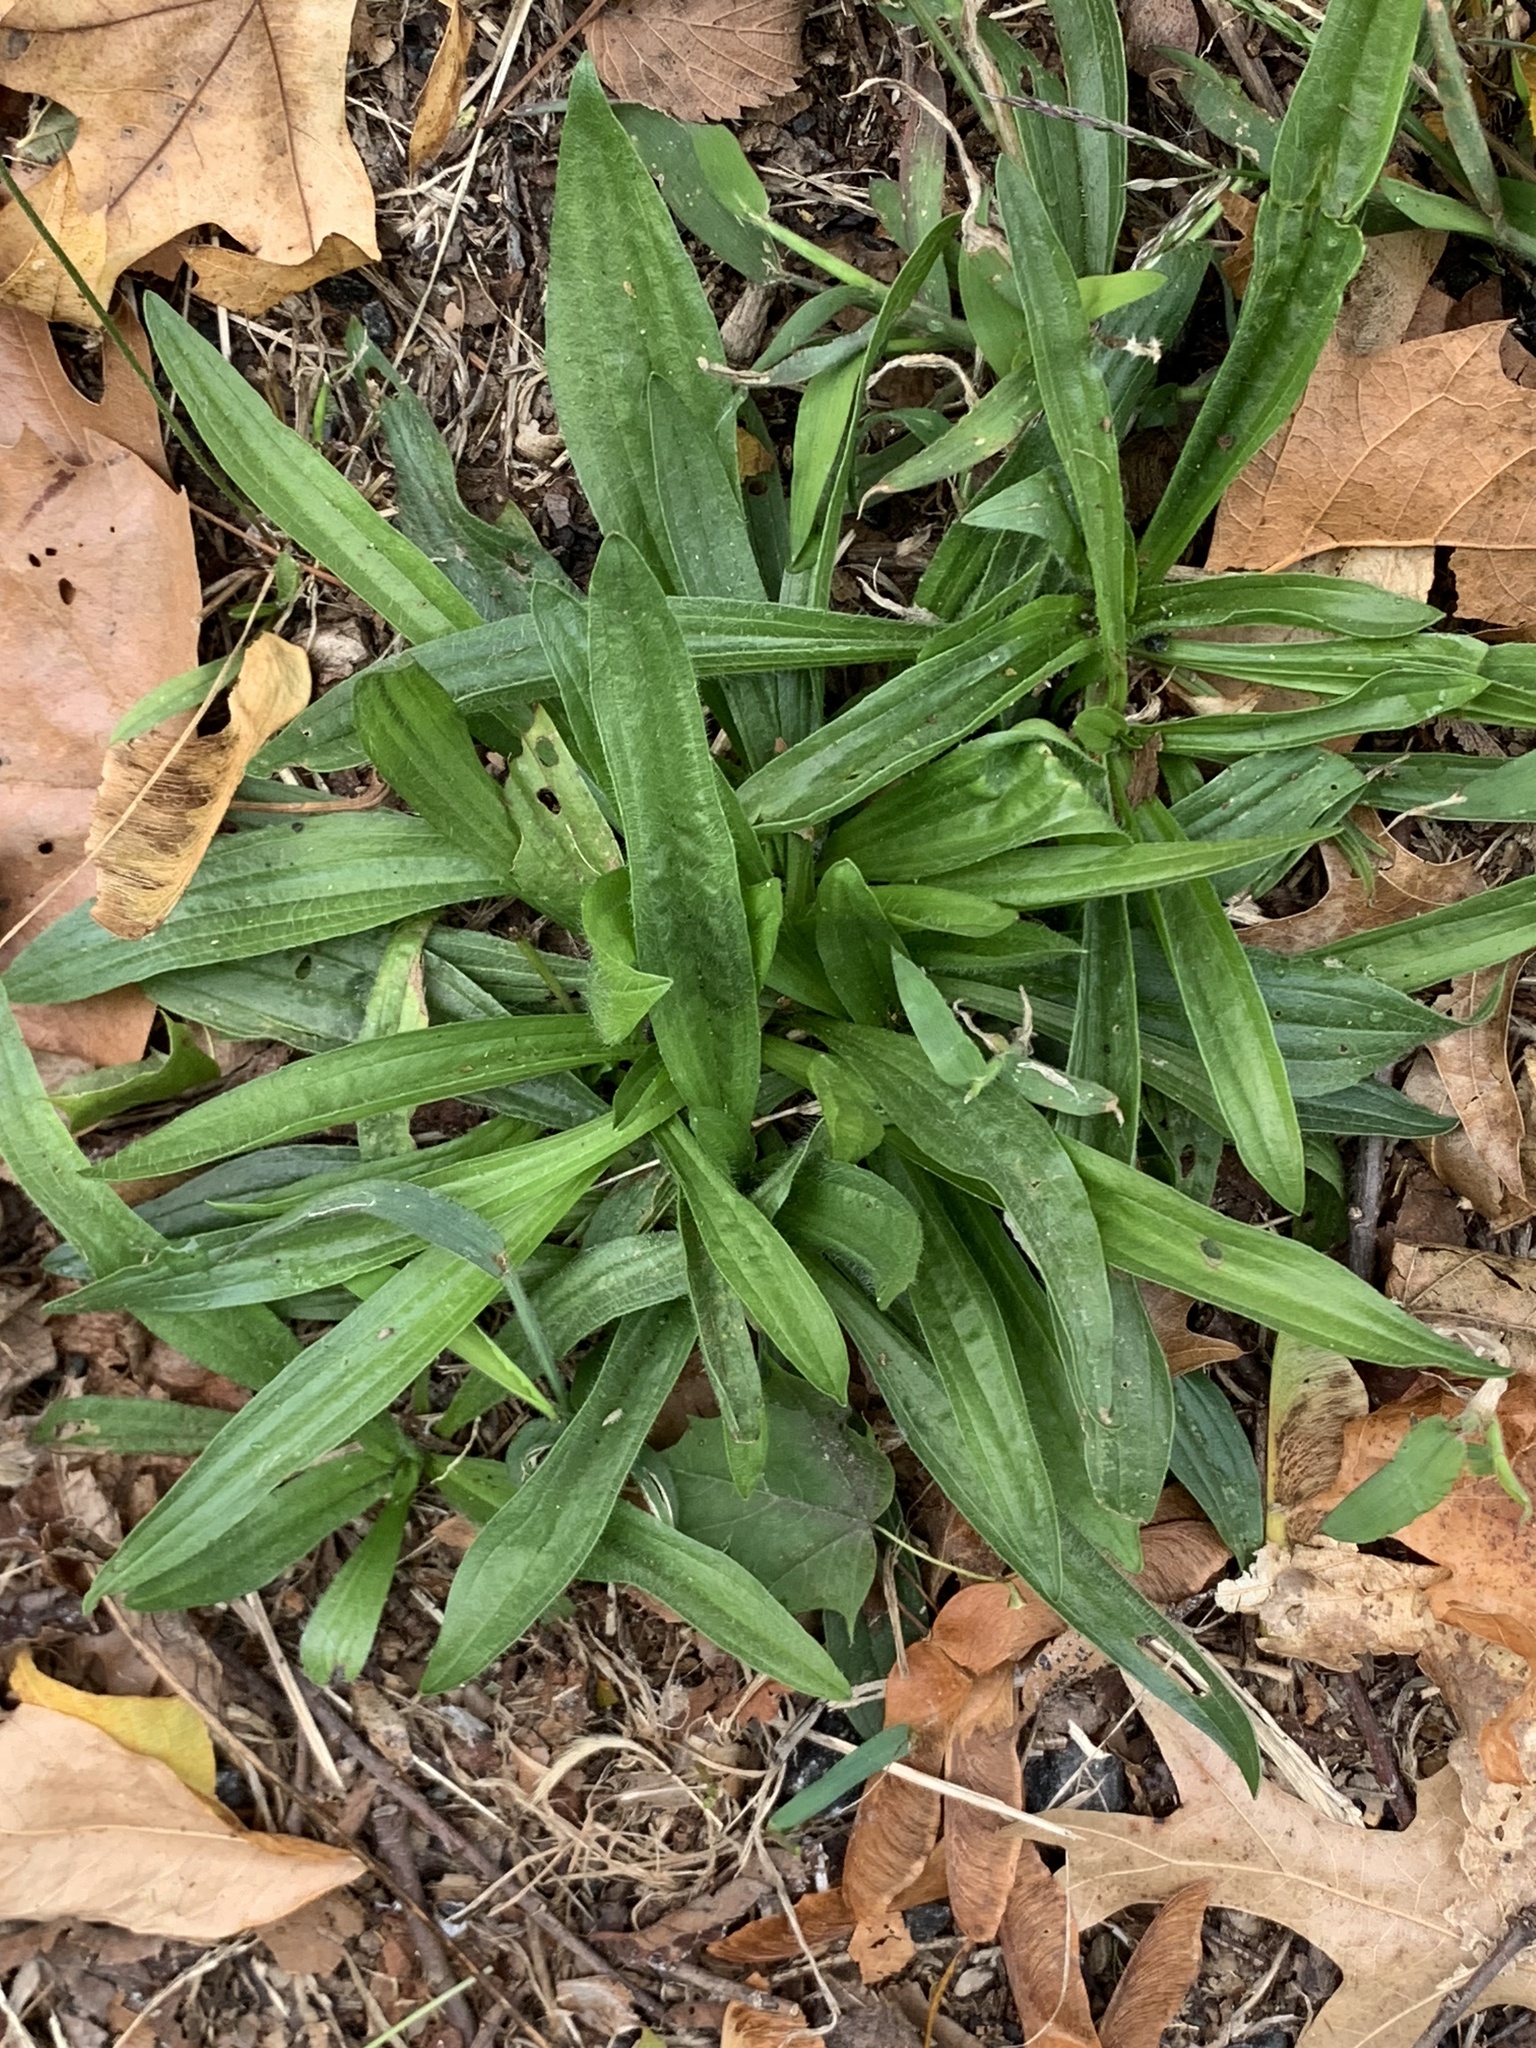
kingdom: Plantae
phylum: Tracheophyta
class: Magnoliopsida
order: Lamiales
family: Plantaginaceae
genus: Plantago
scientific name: Plantago lanceolata
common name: Ribwort plantain
